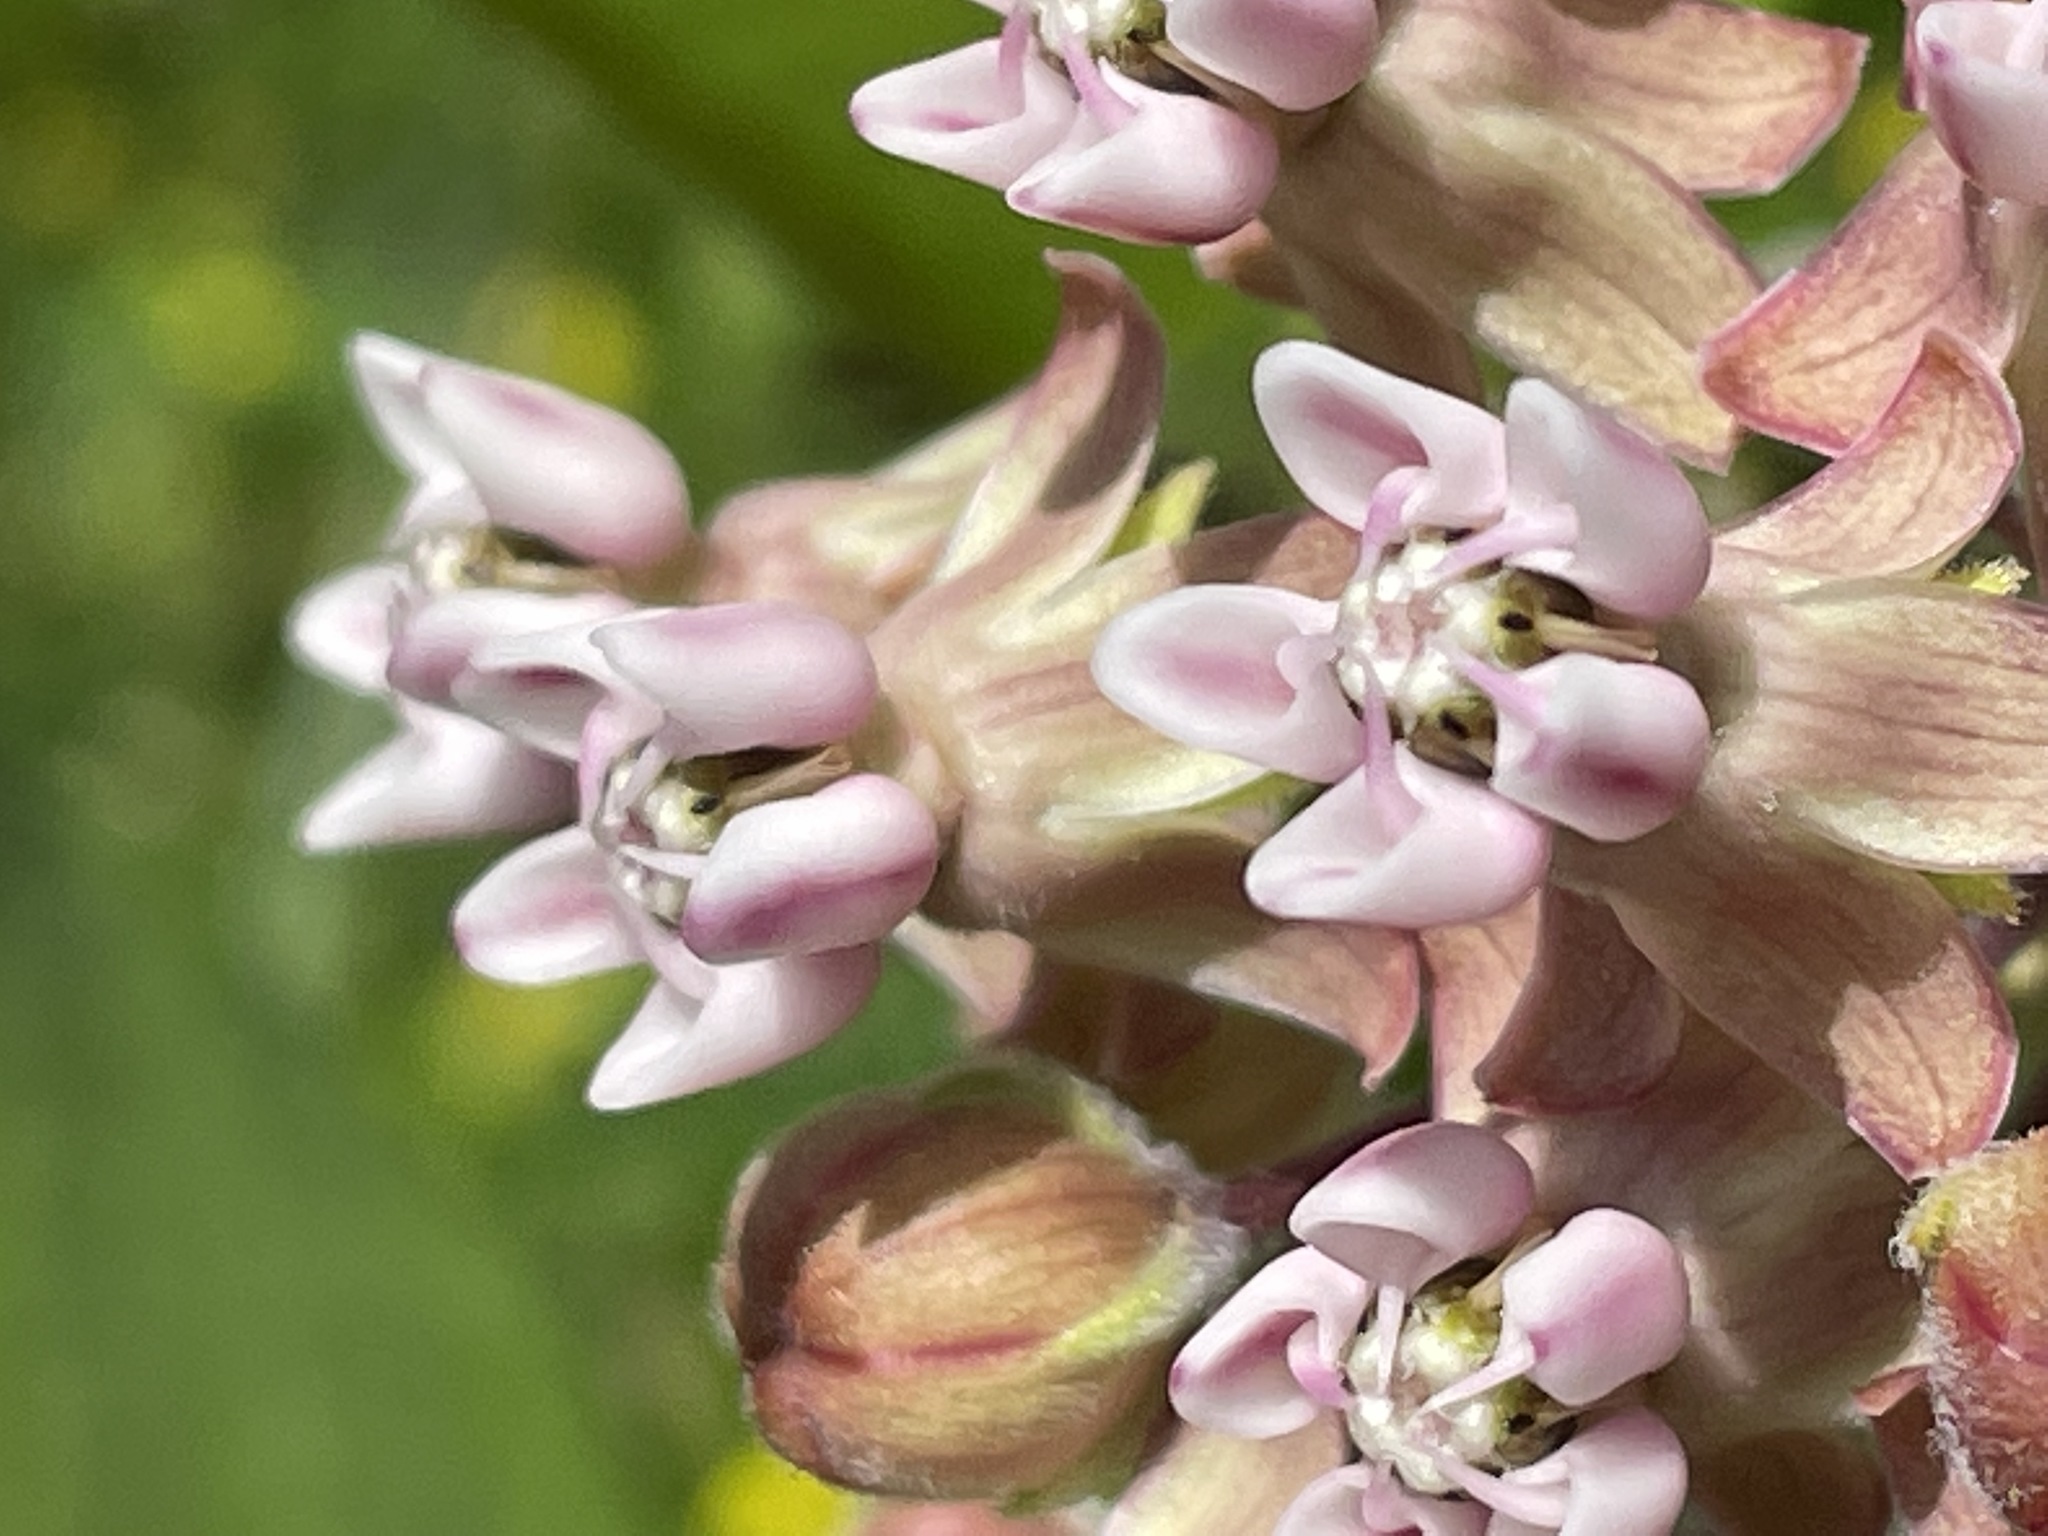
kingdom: Plantae
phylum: Tracheophyta
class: Magnoliopsida
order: Gentianales
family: Apocynaceae
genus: Asclepias
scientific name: Asclepias syriaca
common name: Common milkweed
